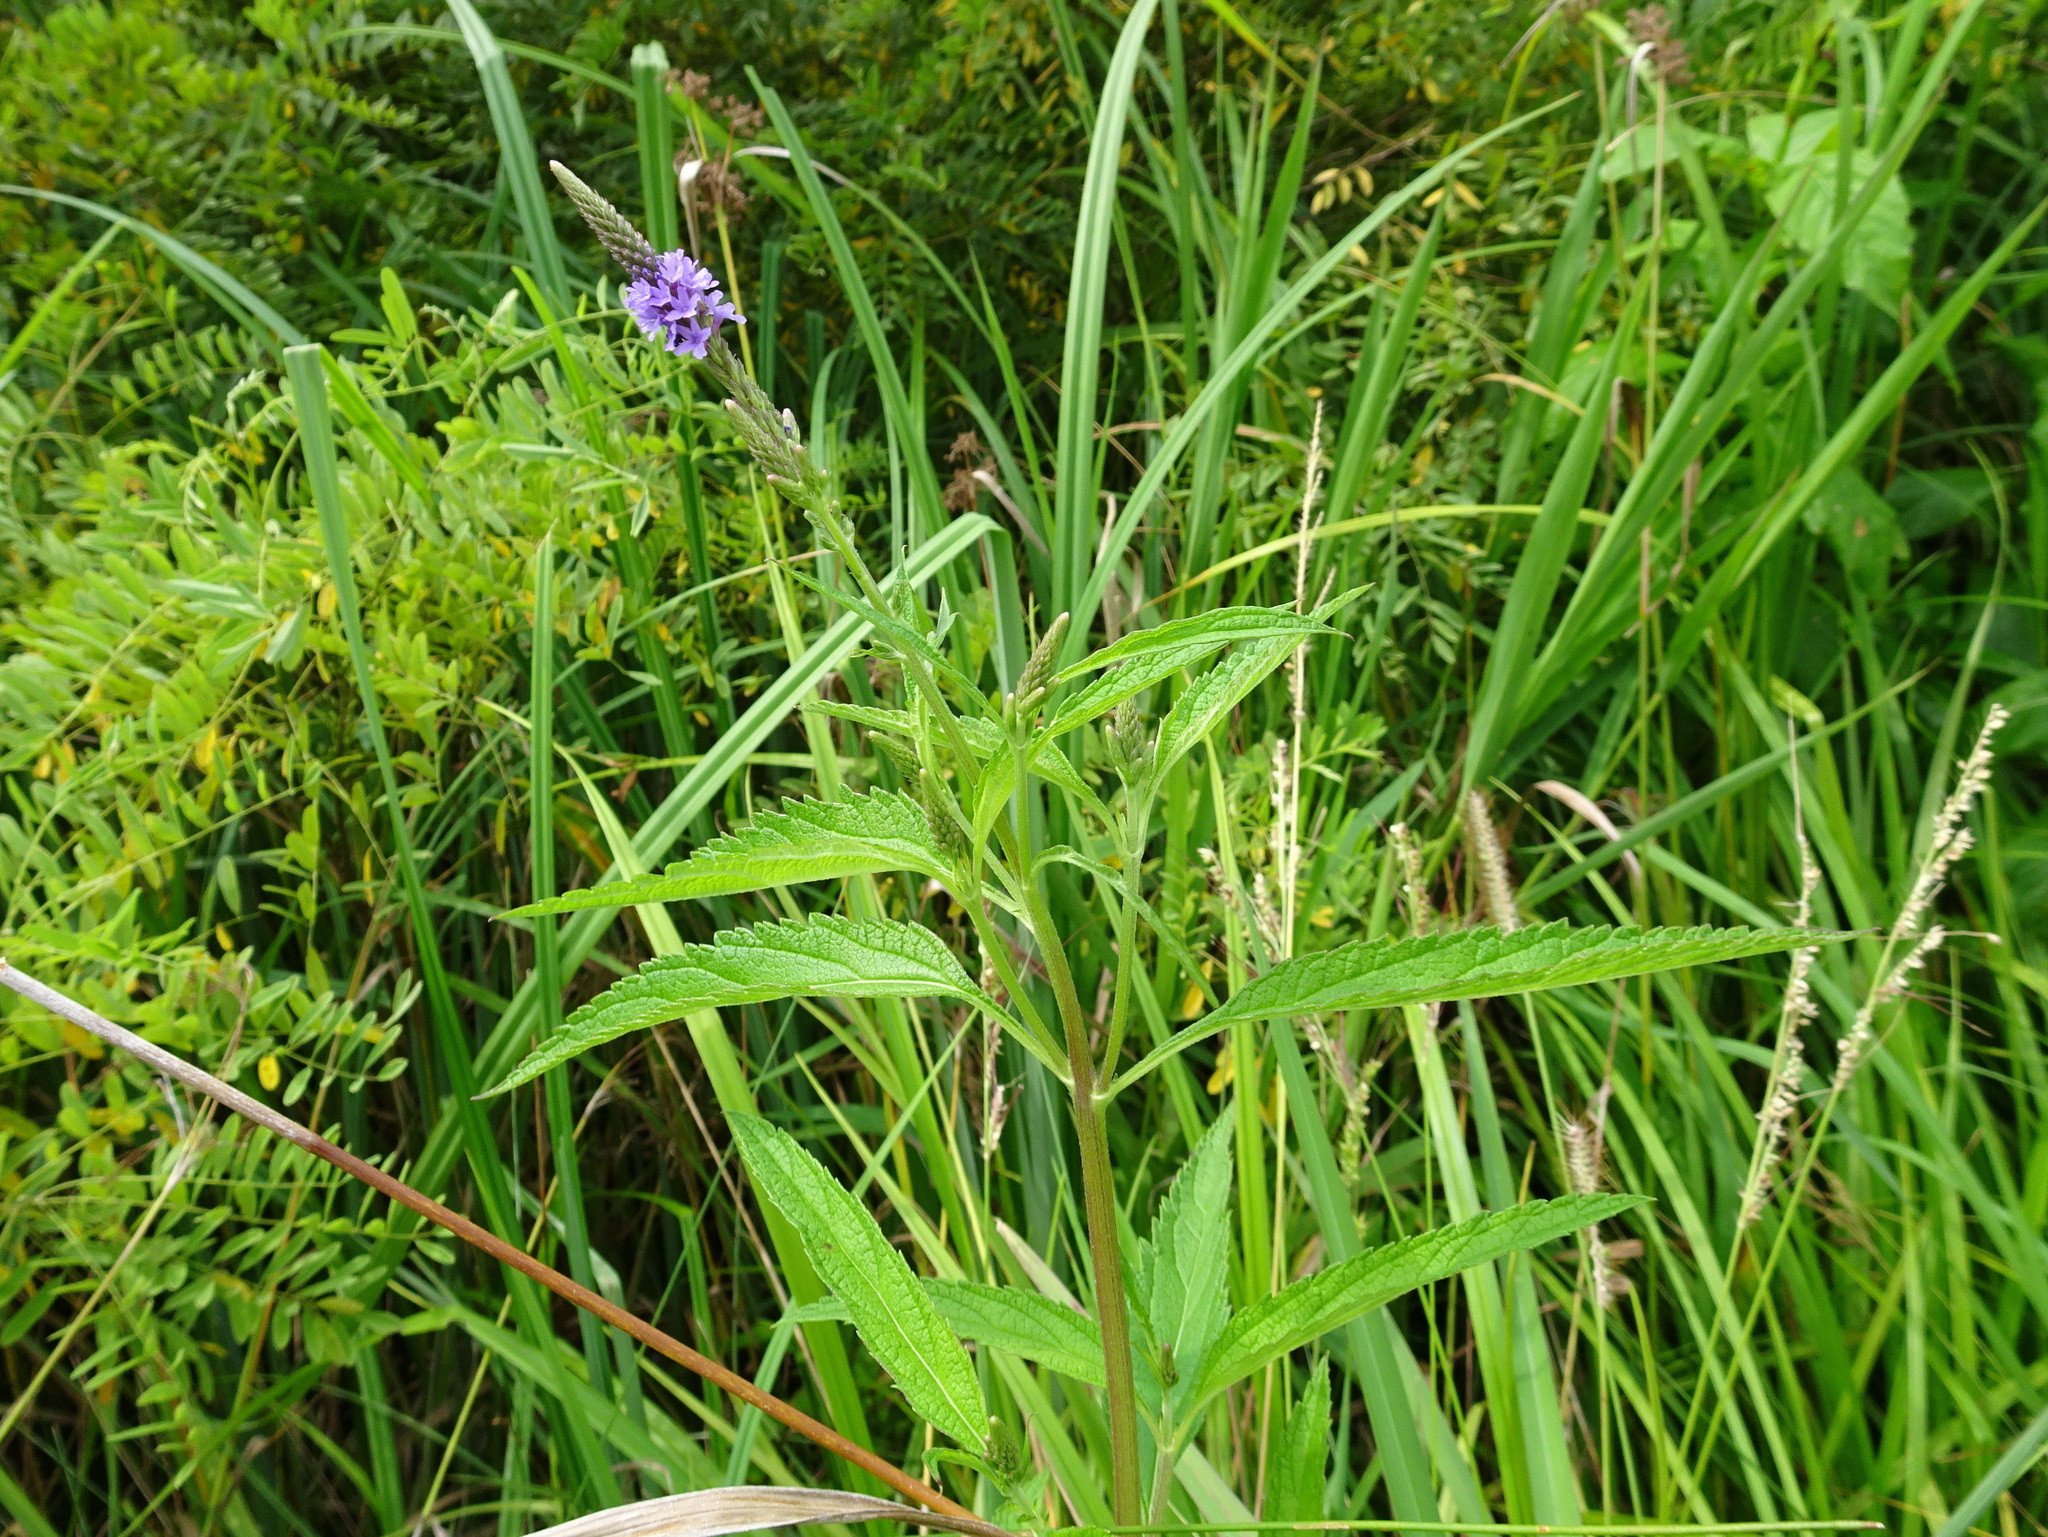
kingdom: Plantae
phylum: Tracheophyta
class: Magnoliopsida
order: Lamiales
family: Verbenaceae
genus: Verbena
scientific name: Verbena hastata
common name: American blue vervain
